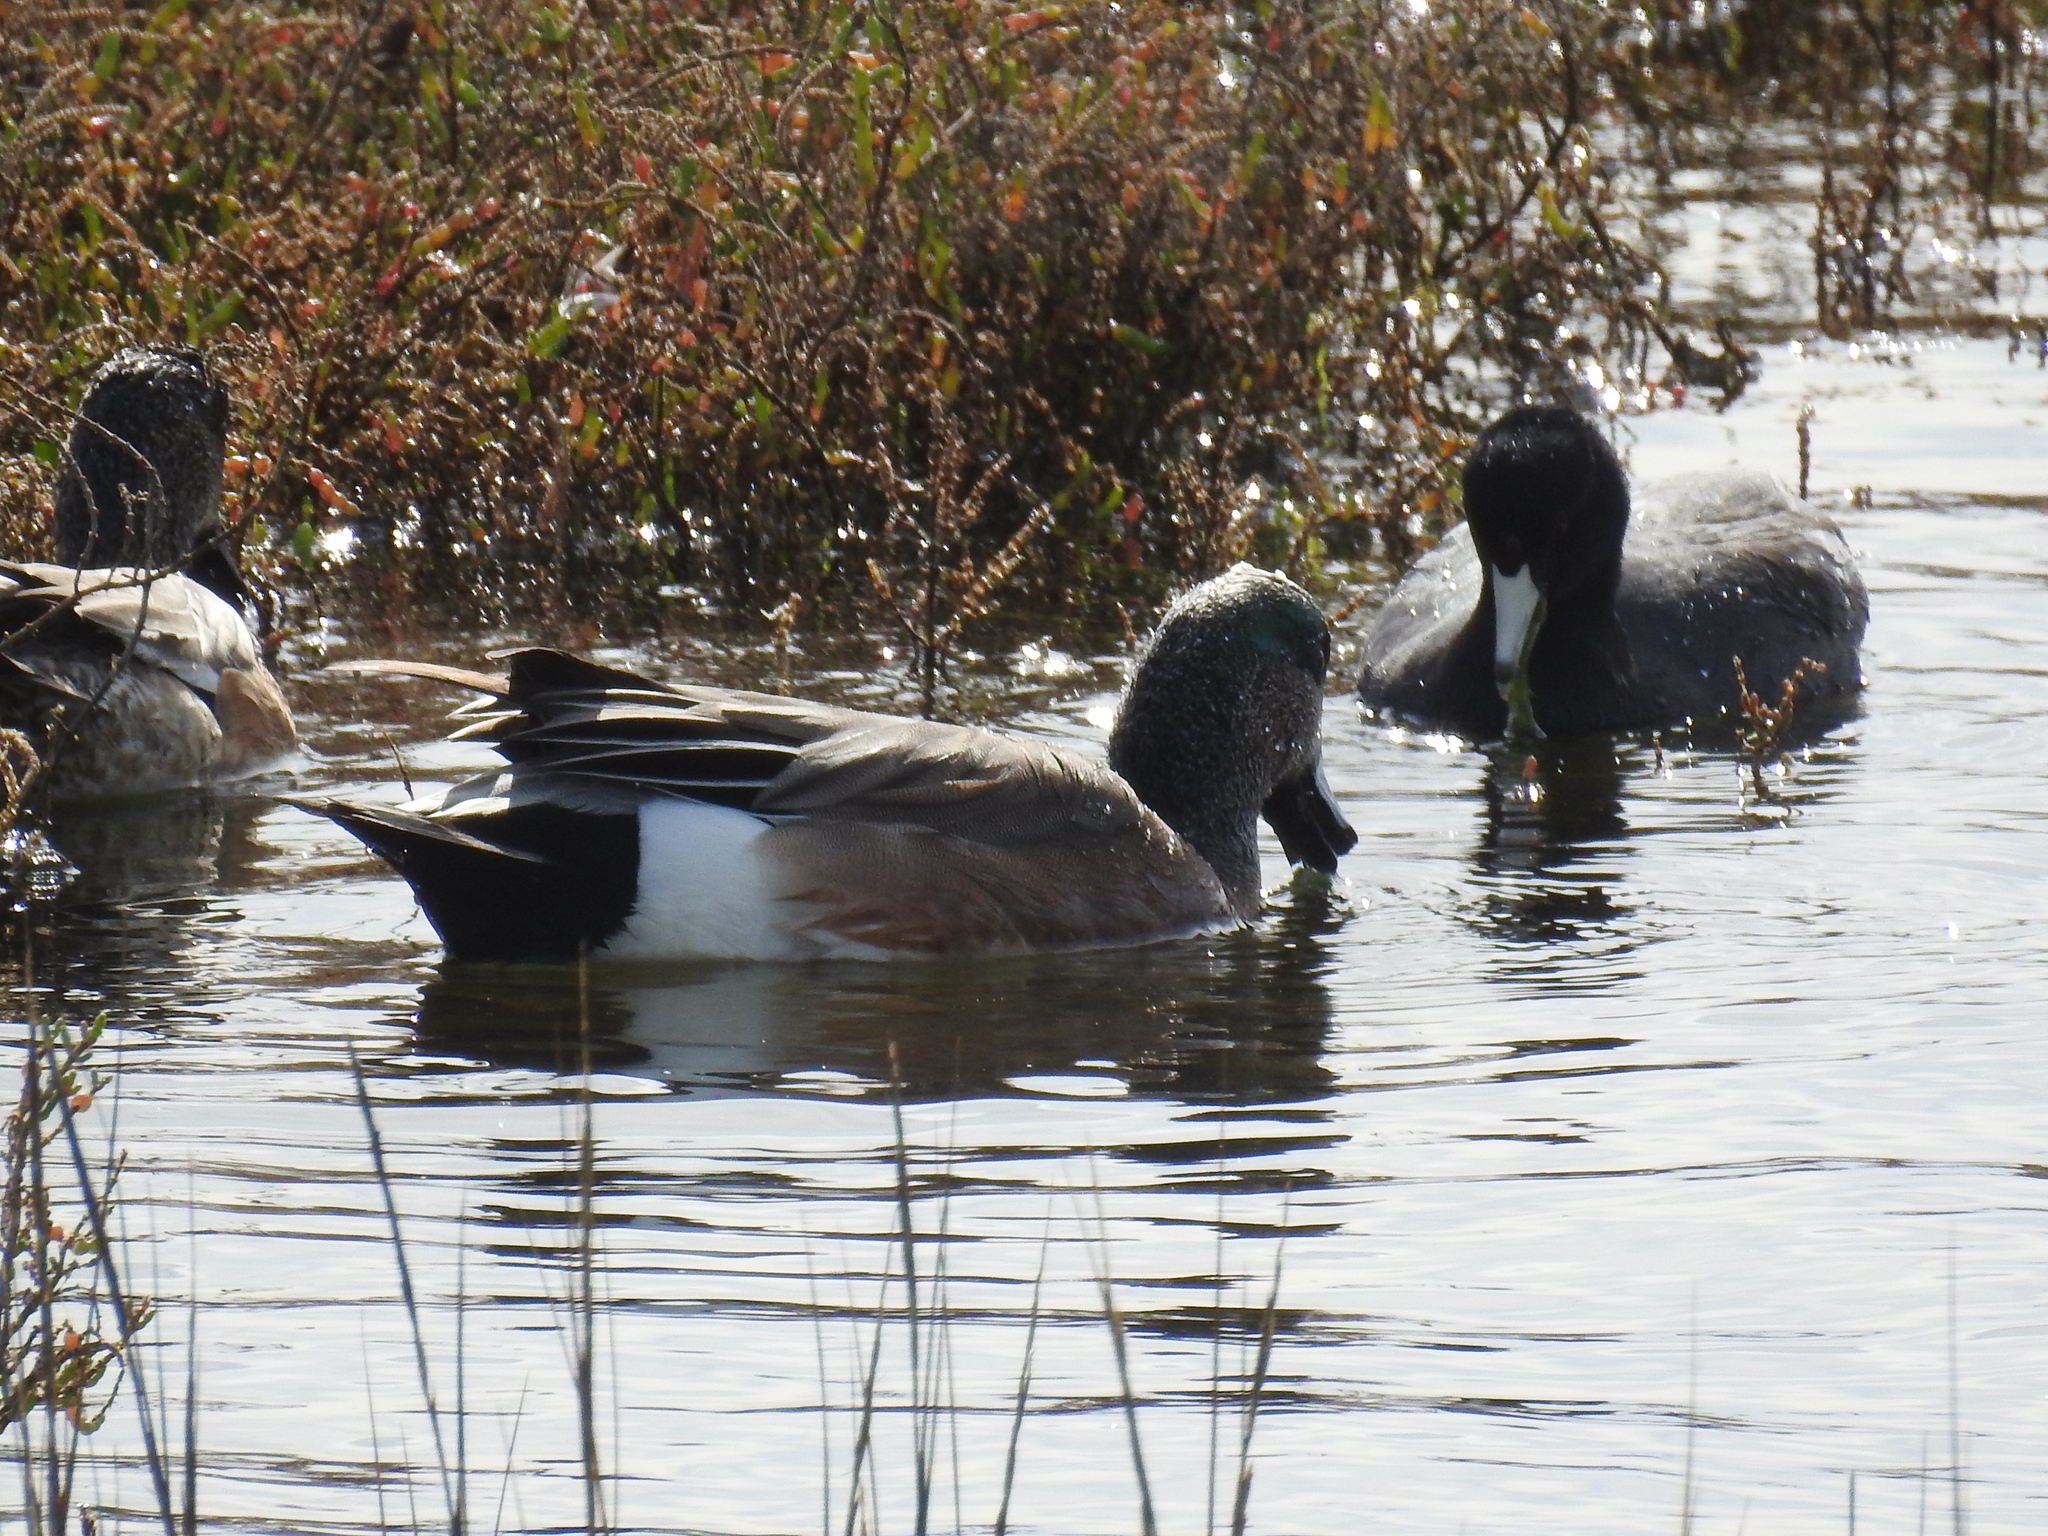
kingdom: Animalia
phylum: Chordata
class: Aves
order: Anseriformes
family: Anatidae
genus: Mareca
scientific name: Mareca americana
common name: American wigeon
